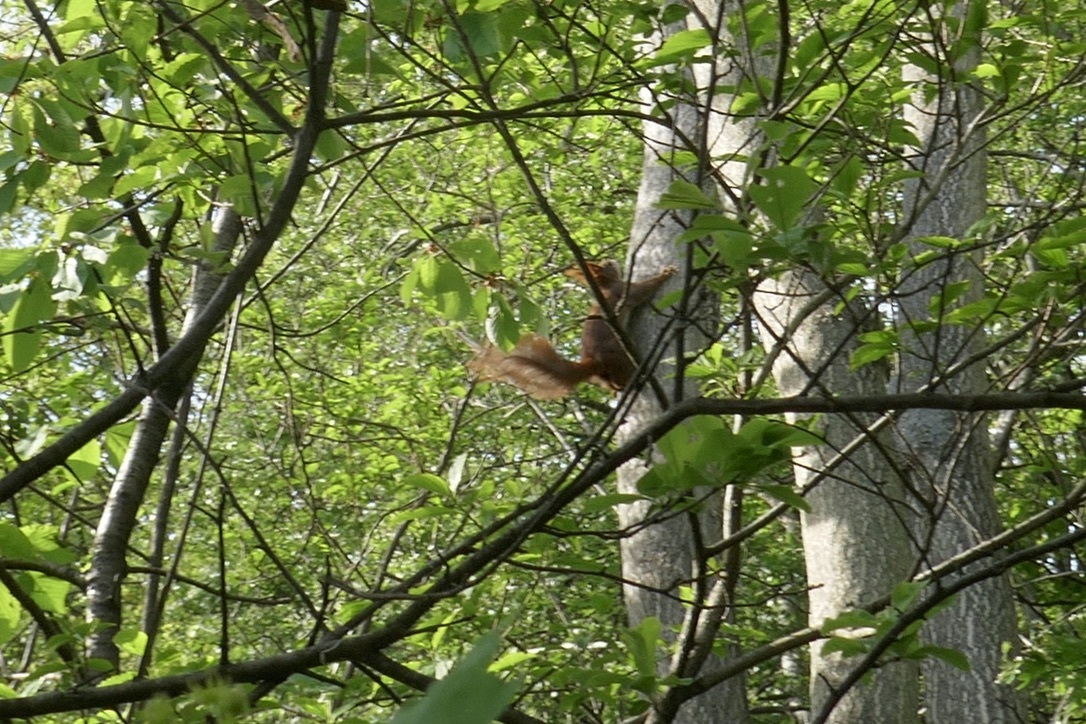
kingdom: Animalia
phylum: Chordata
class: Mammalia
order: Rodentia
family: Sciuridae
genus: Sciurus
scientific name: Sciurus vulgaris
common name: Eurasian red squirrel
